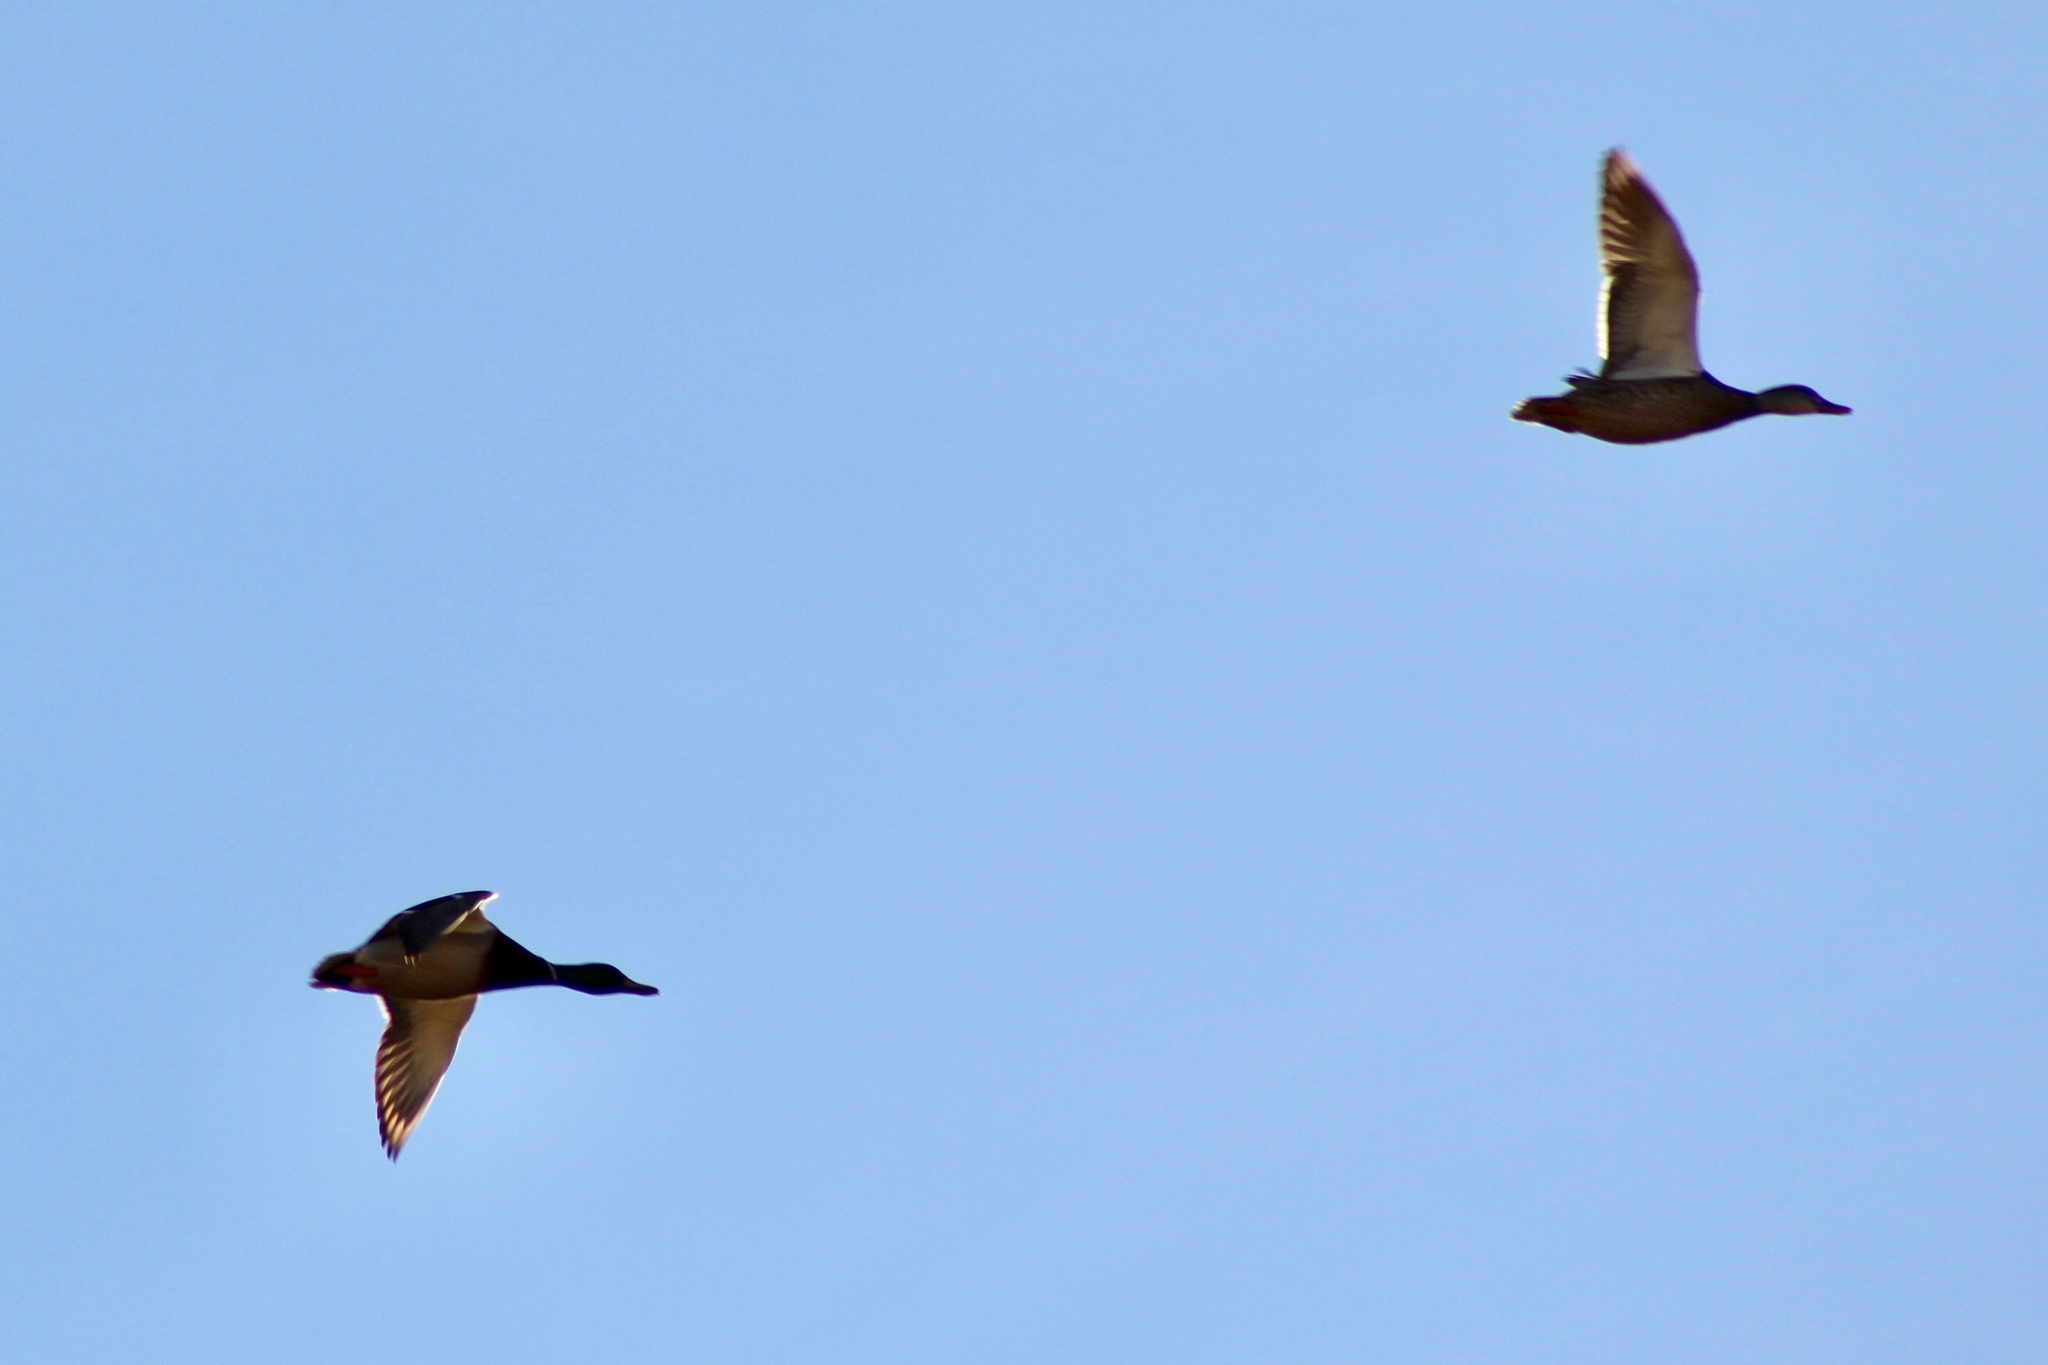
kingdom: Animalia
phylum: Chordata
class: Aves
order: Anseriformes
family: Anatidae
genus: Anas
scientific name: Anas platyrhynchos
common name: Mallard
